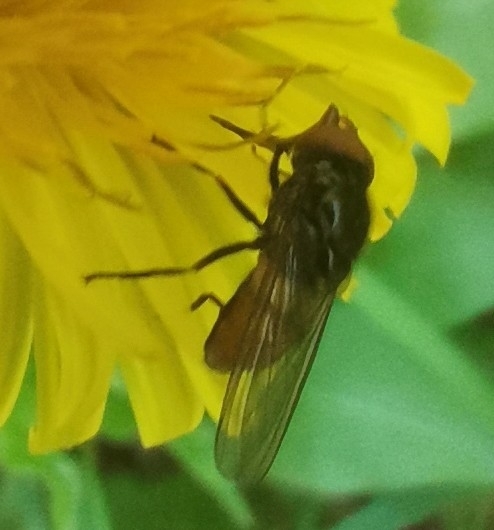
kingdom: Animalia
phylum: Arthropoda
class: Insecta
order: Diptera
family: Syrphidae
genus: Rhingia
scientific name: Rhingia austriaca
